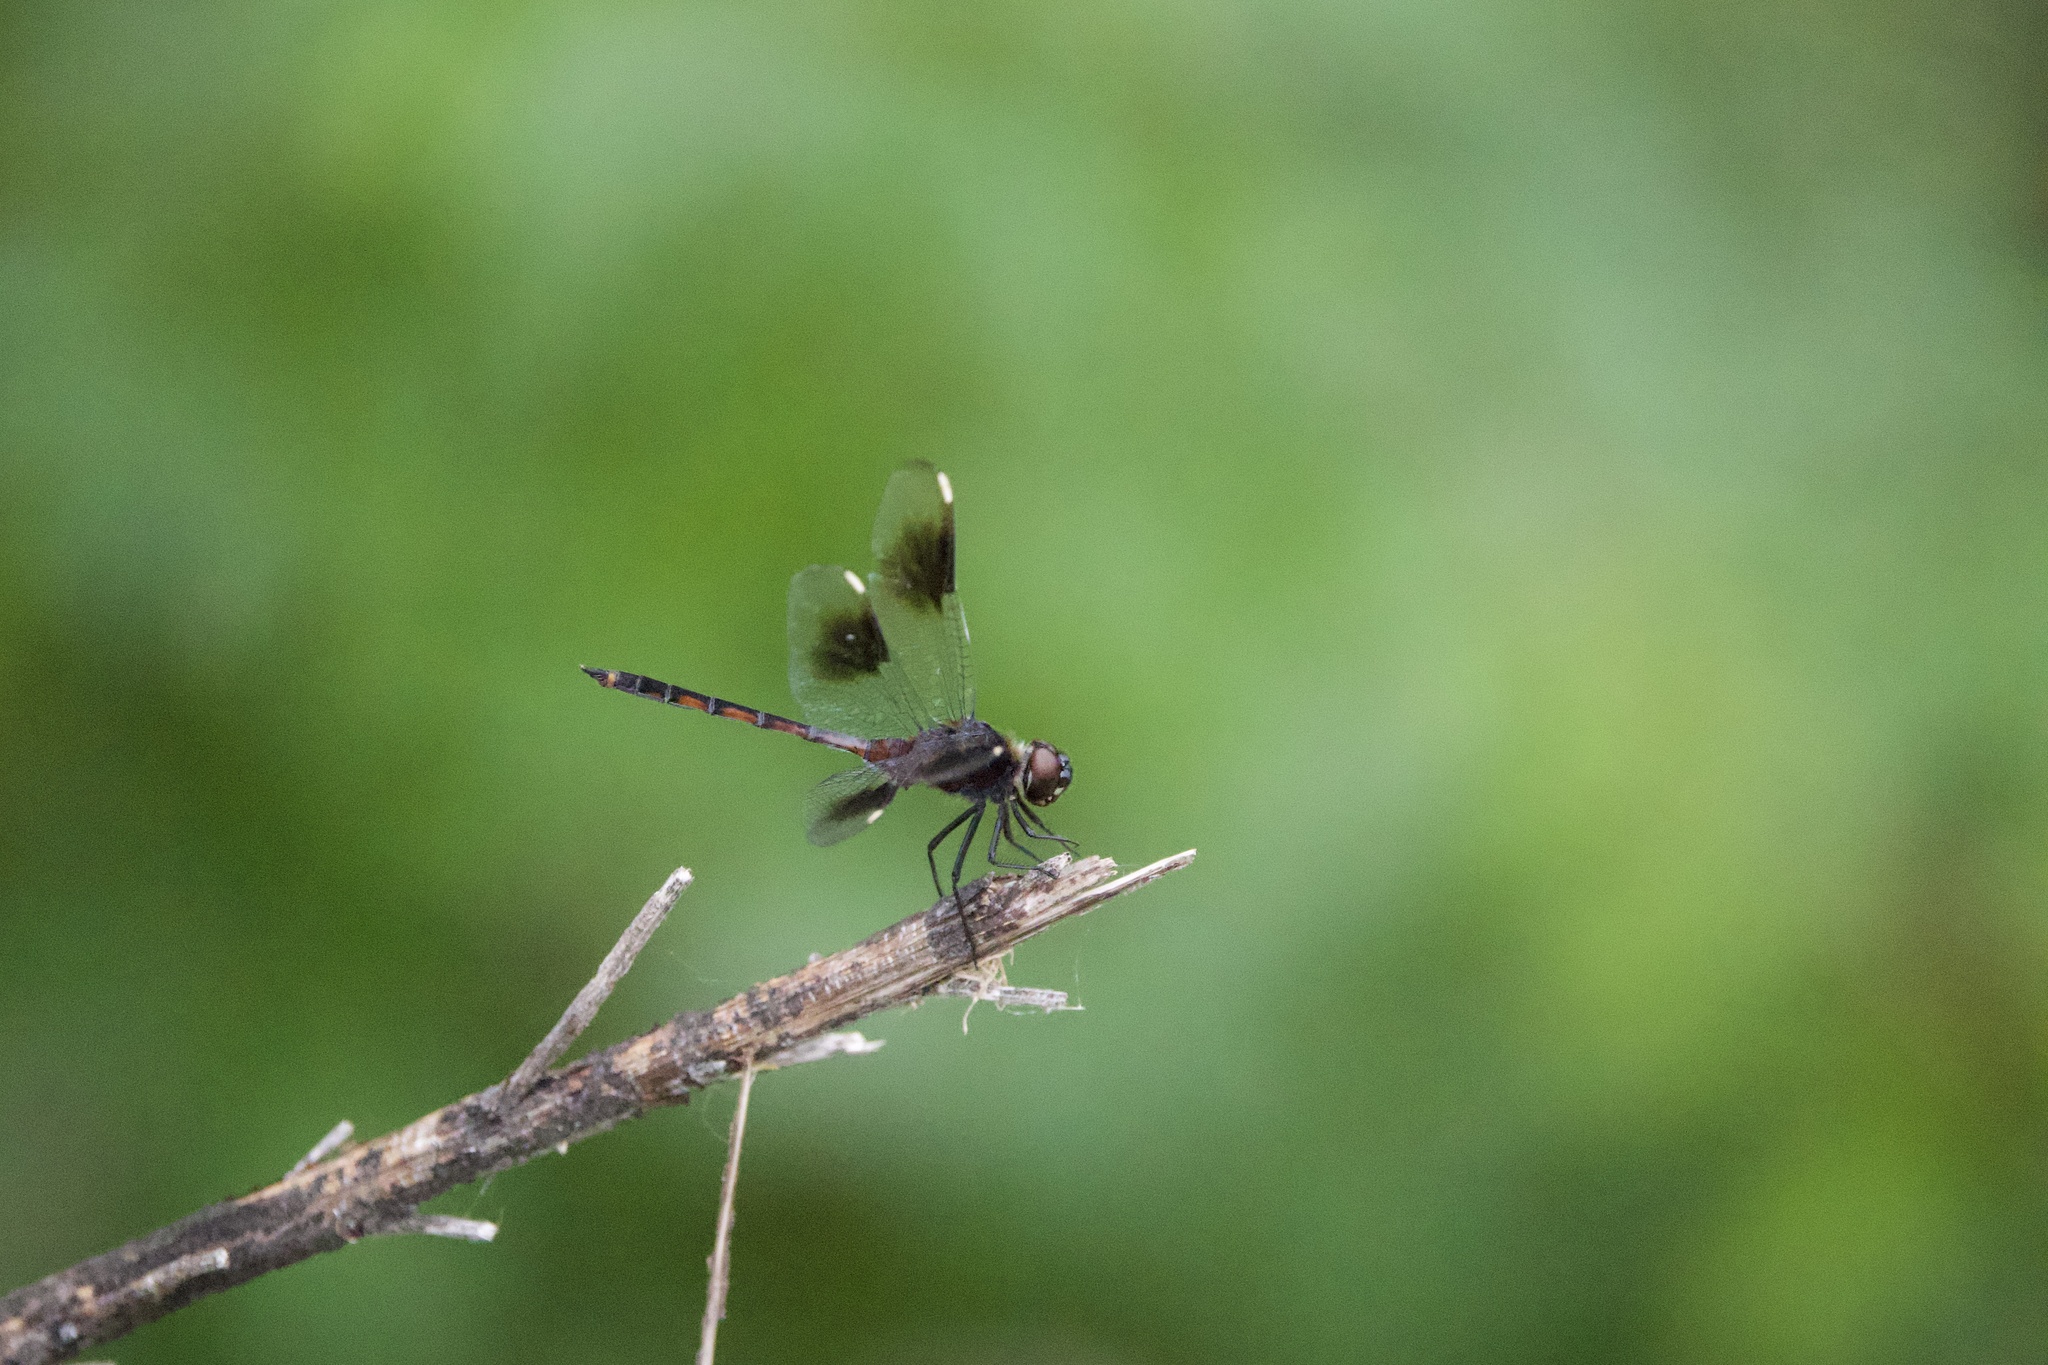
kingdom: Animalia
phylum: Arthropoda
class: Insecta
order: Odonata
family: Libellulidae
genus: Brachymesia
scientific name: Brachymesia gravida
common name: Four-spotted pennant
